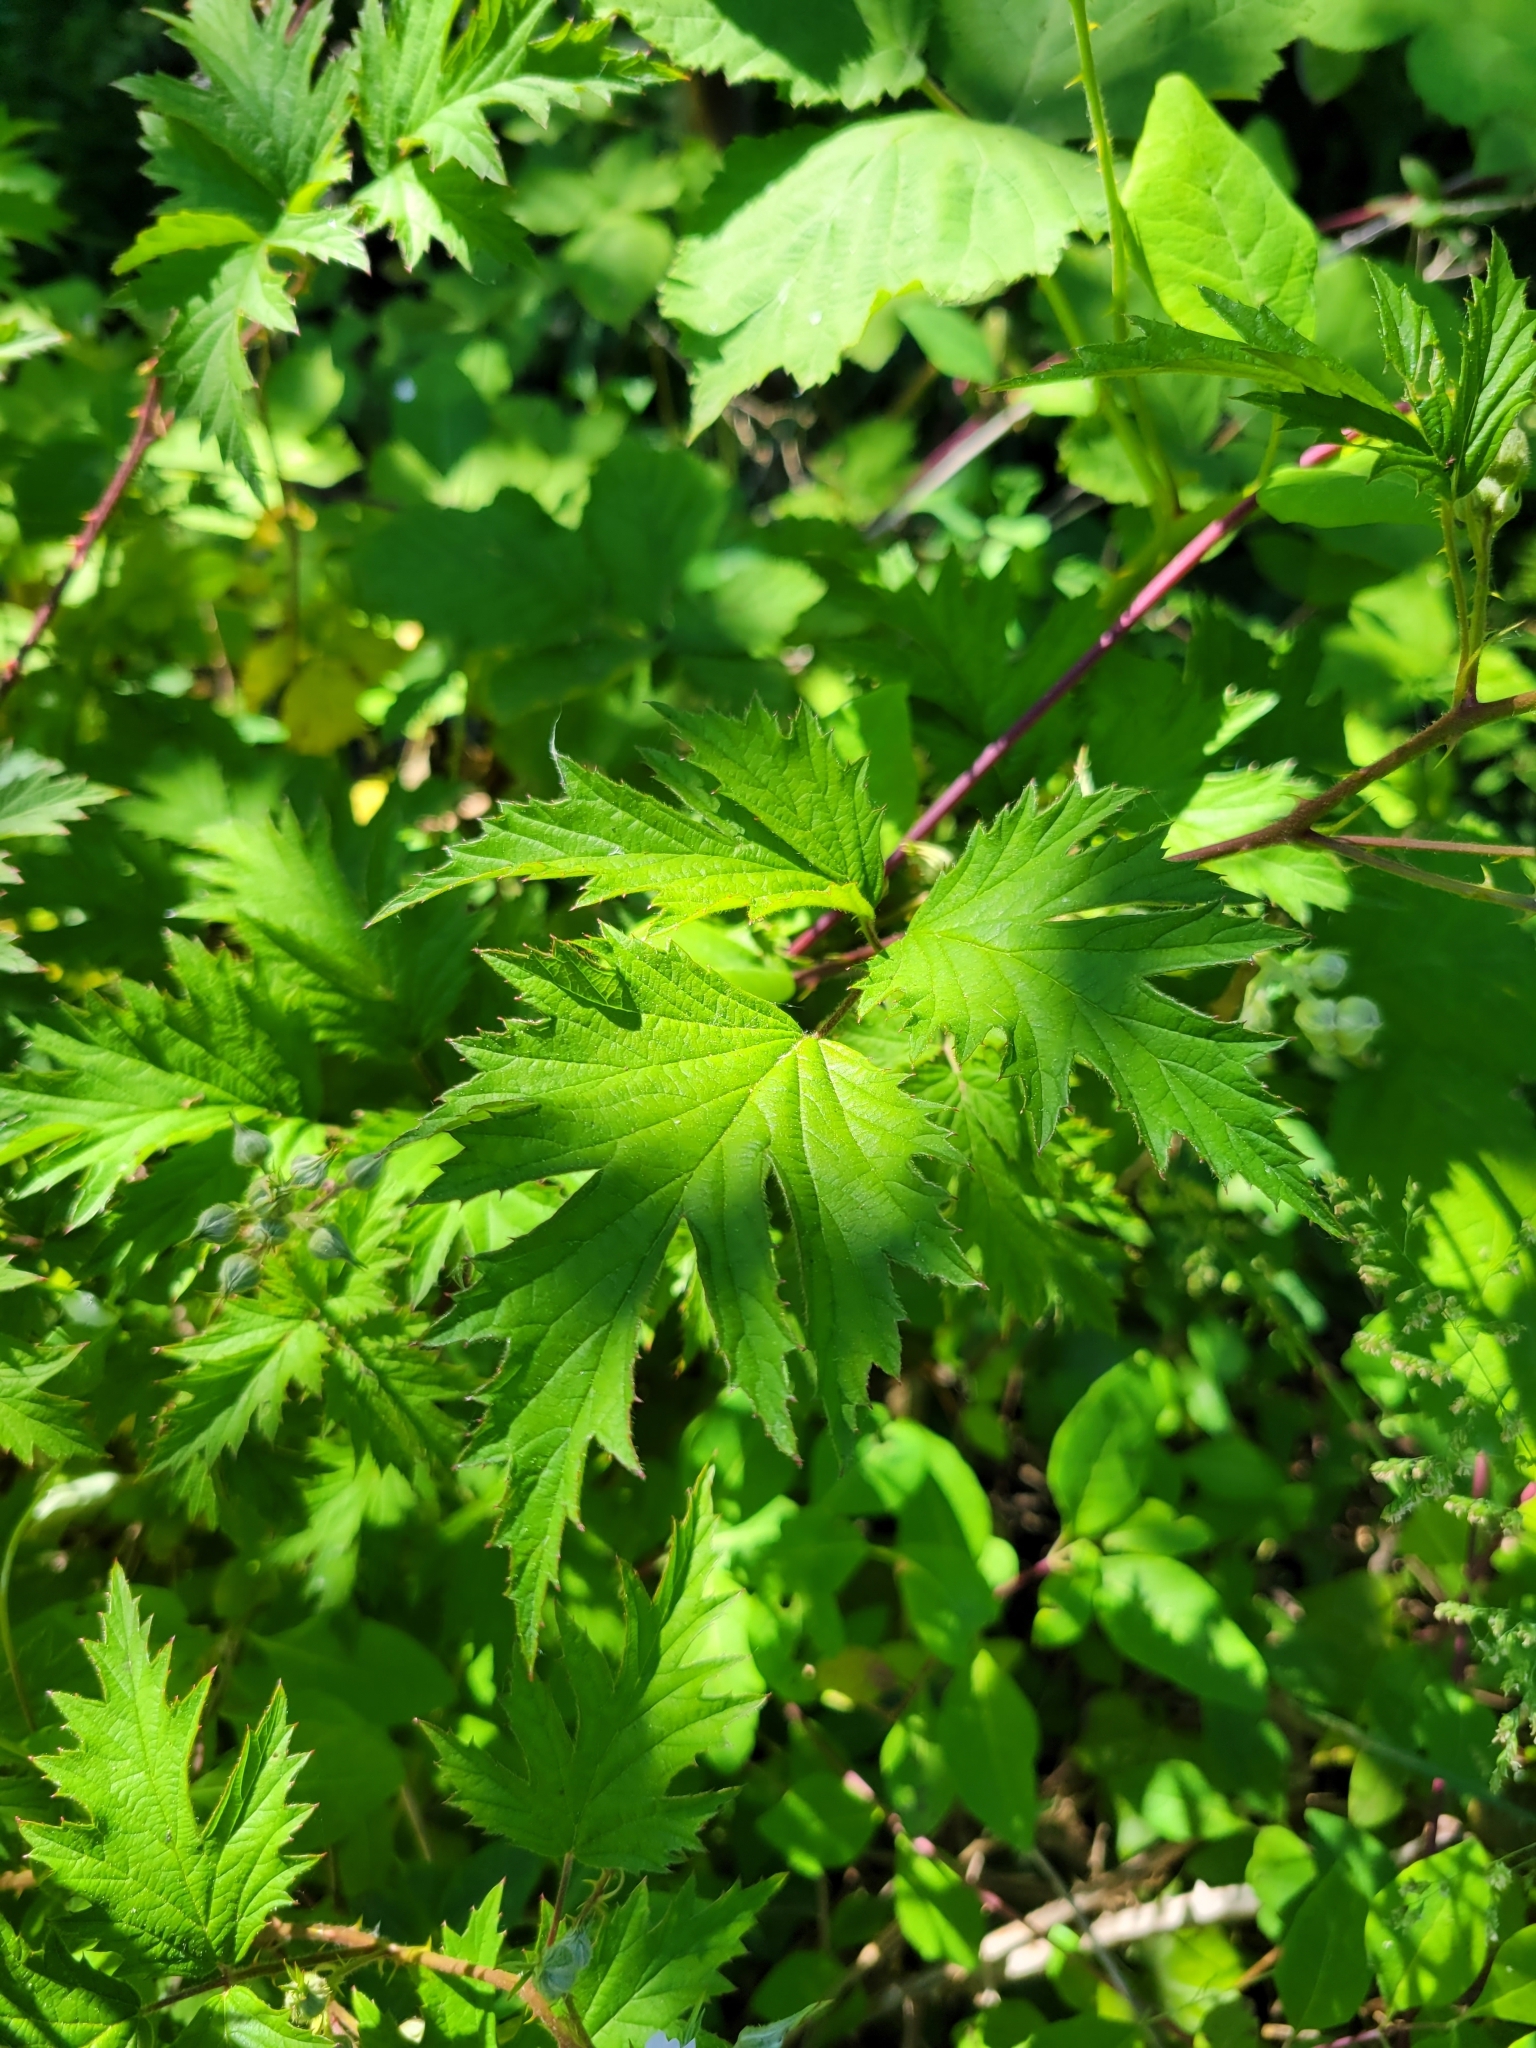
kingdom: Plantae
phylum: Tracheophyta
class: Magnoliopsida
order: Rosales
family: Rosaceae
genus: Rubus
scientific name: Rubus laciniatus
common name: Evergreen blackberry
